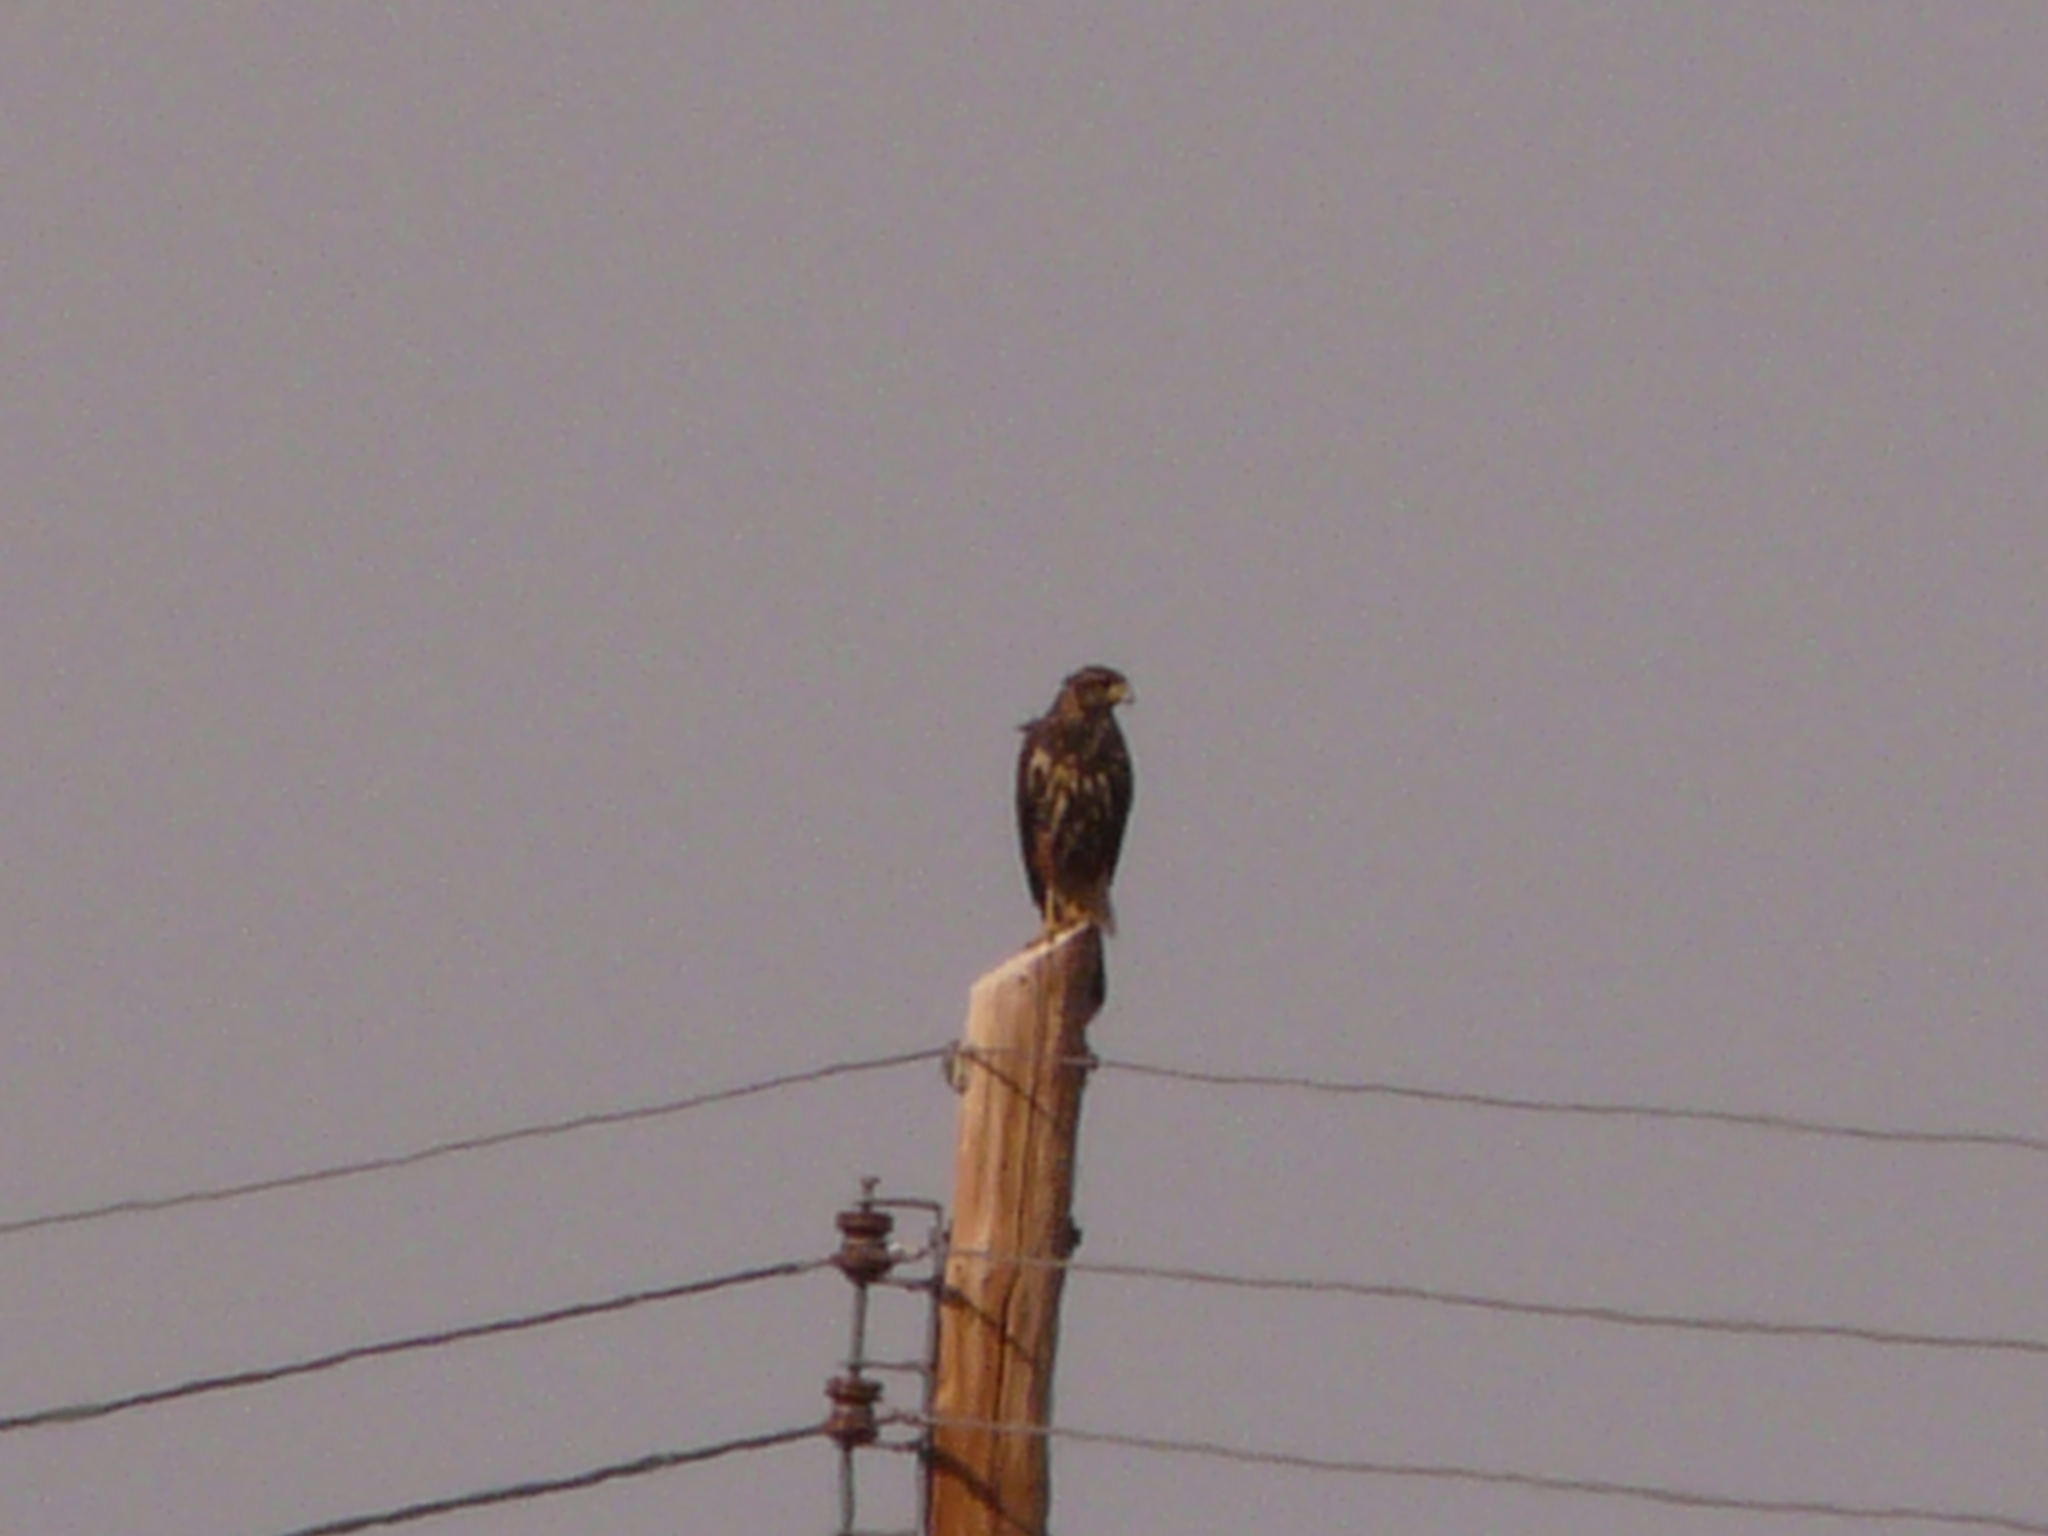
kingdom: Animalia
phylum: Chordata
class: Aves
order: Accipitriformes
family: Accipitridae
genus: Parabuteo
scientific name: Parabuteo unicinctus
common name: Harris's hawk
